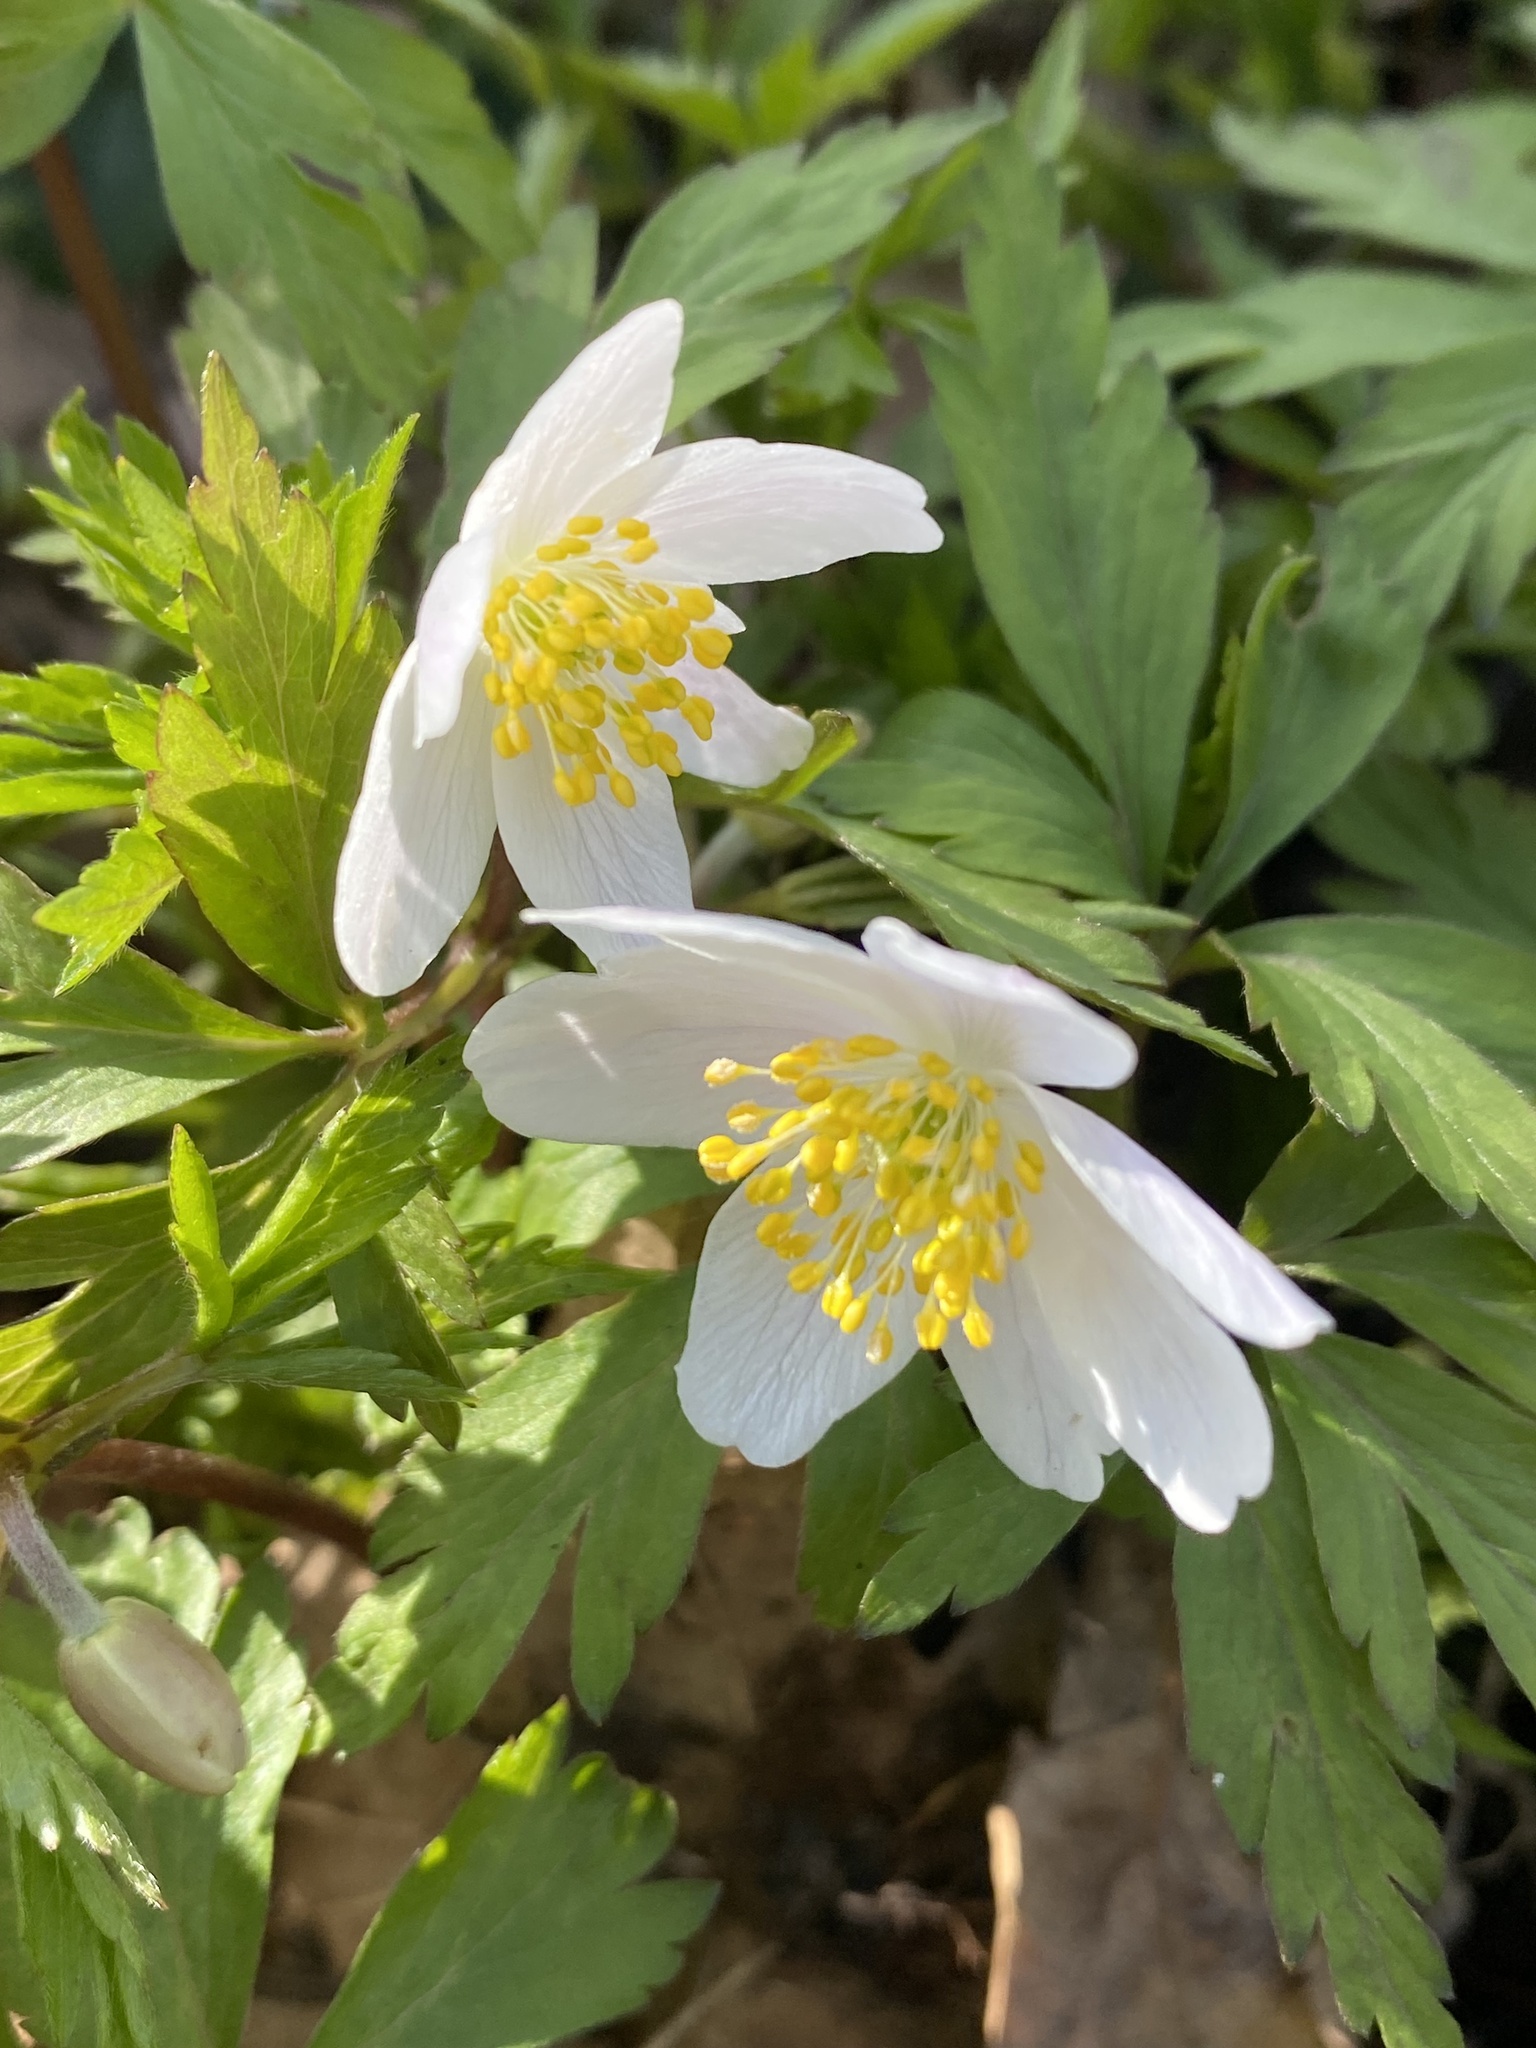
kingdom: Plantae
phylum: Tracheophyta
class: Magnoliopsida
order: Ranunculales
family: Ranunculaceae
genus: Anemone
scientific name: Anemone nemorosa
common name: Wood anemone
